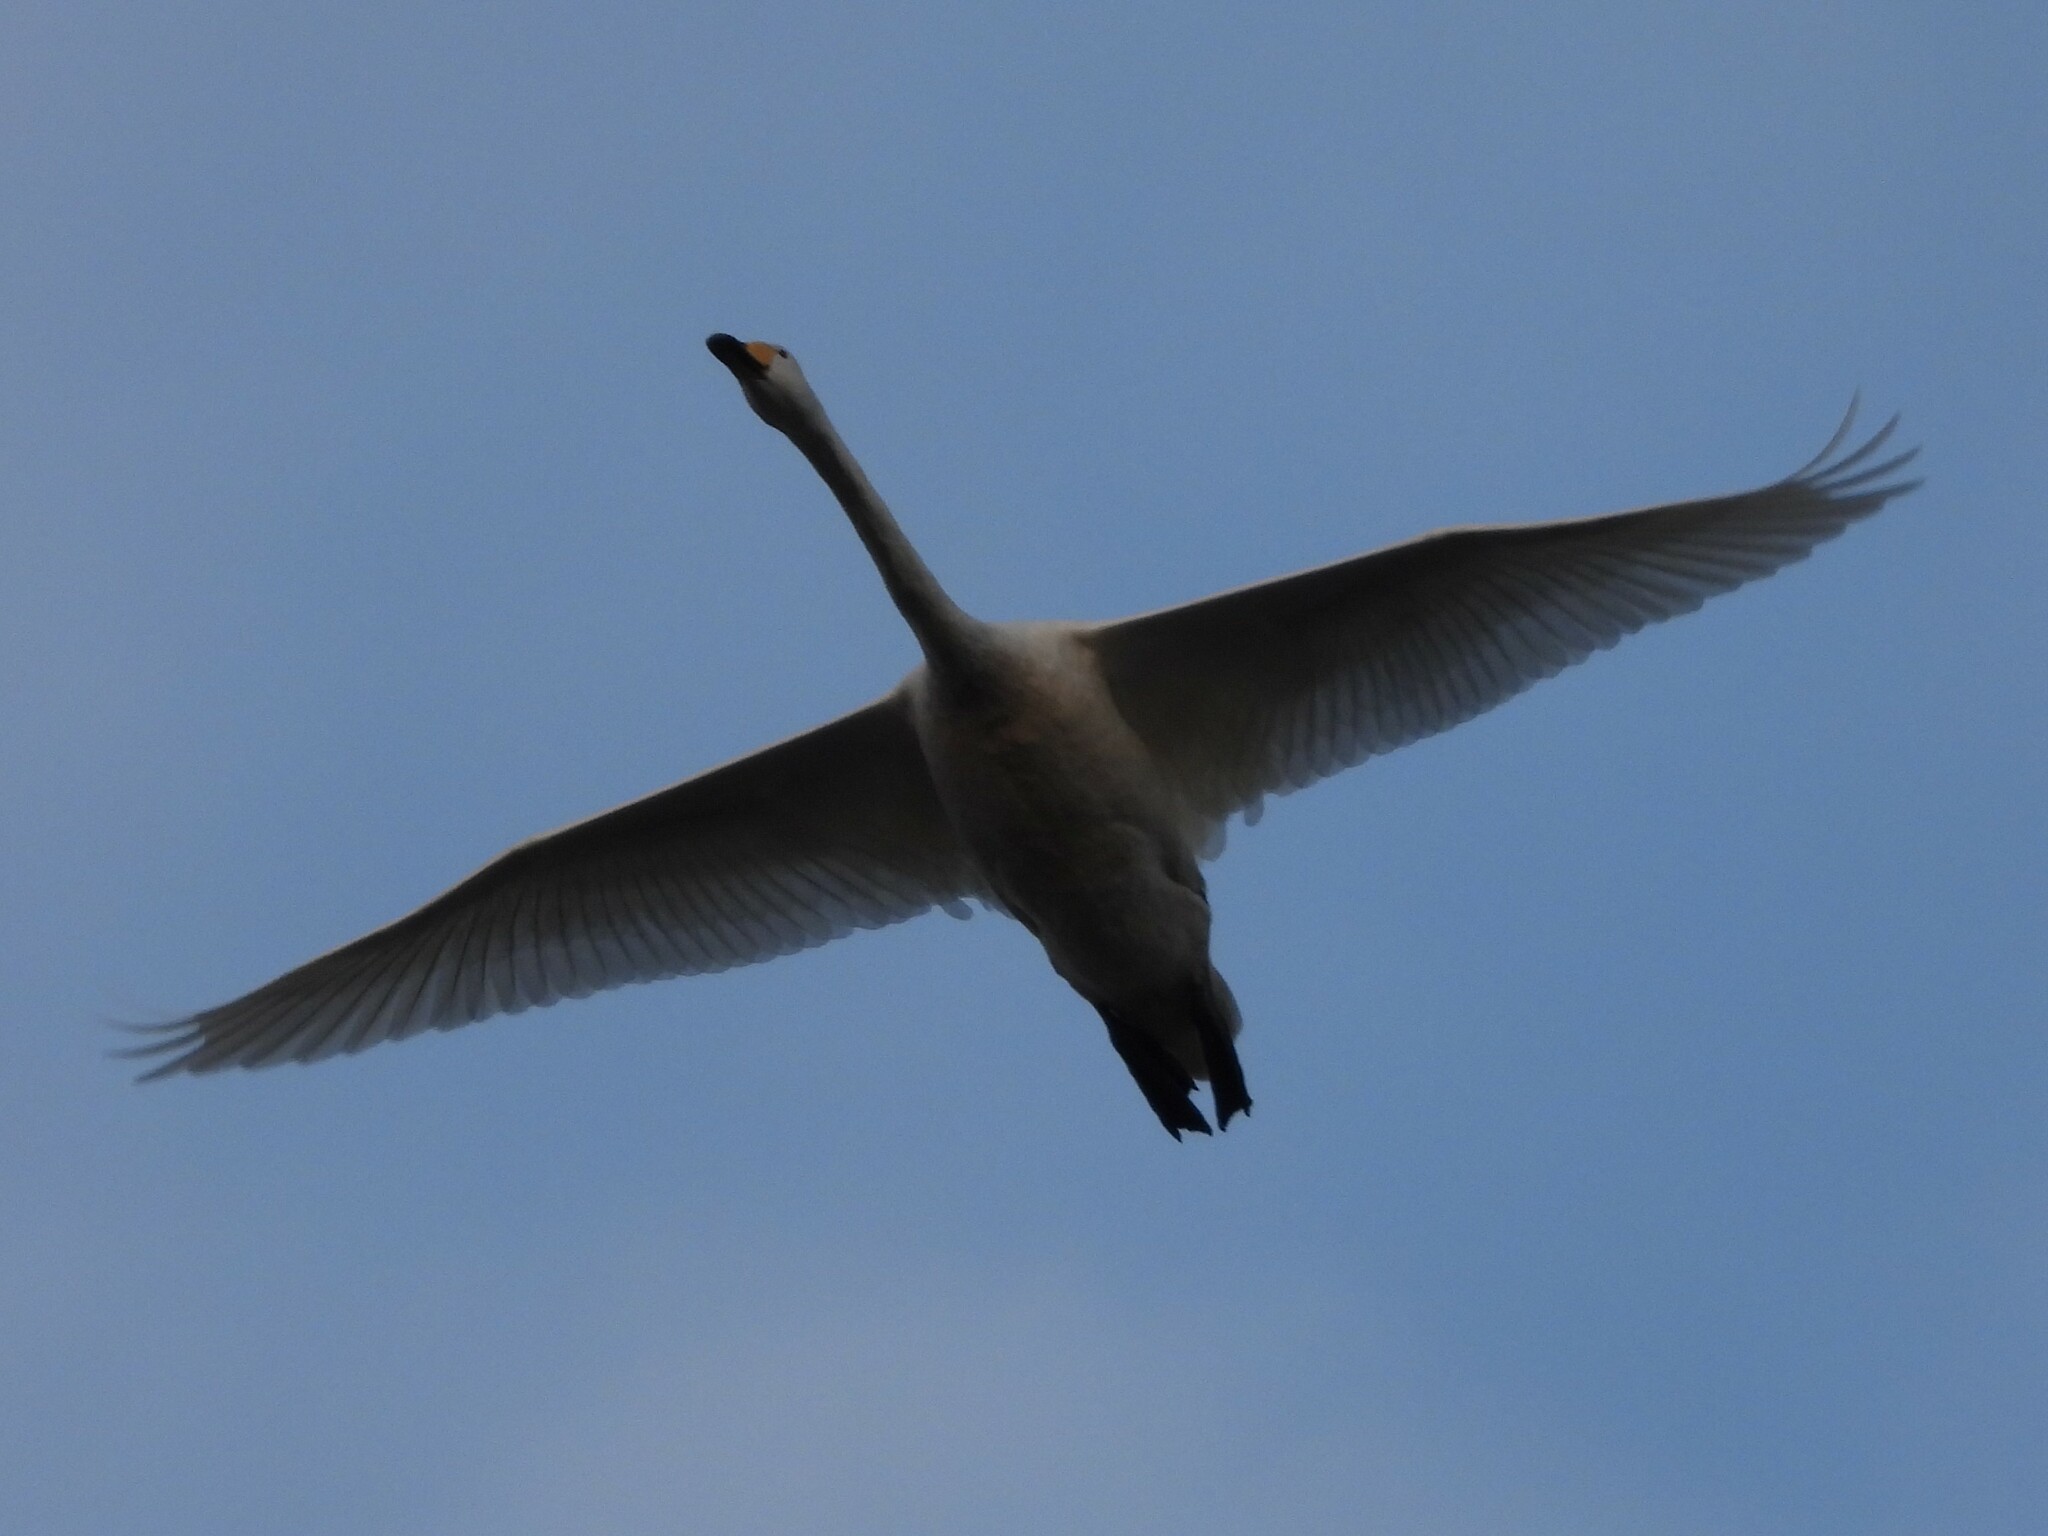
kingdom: Animalia
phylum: Chordata
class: Aves
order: Anseriformes
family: Anatidae
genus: Cygnus
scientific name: Cygnus cygnus
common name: Whooper swan
